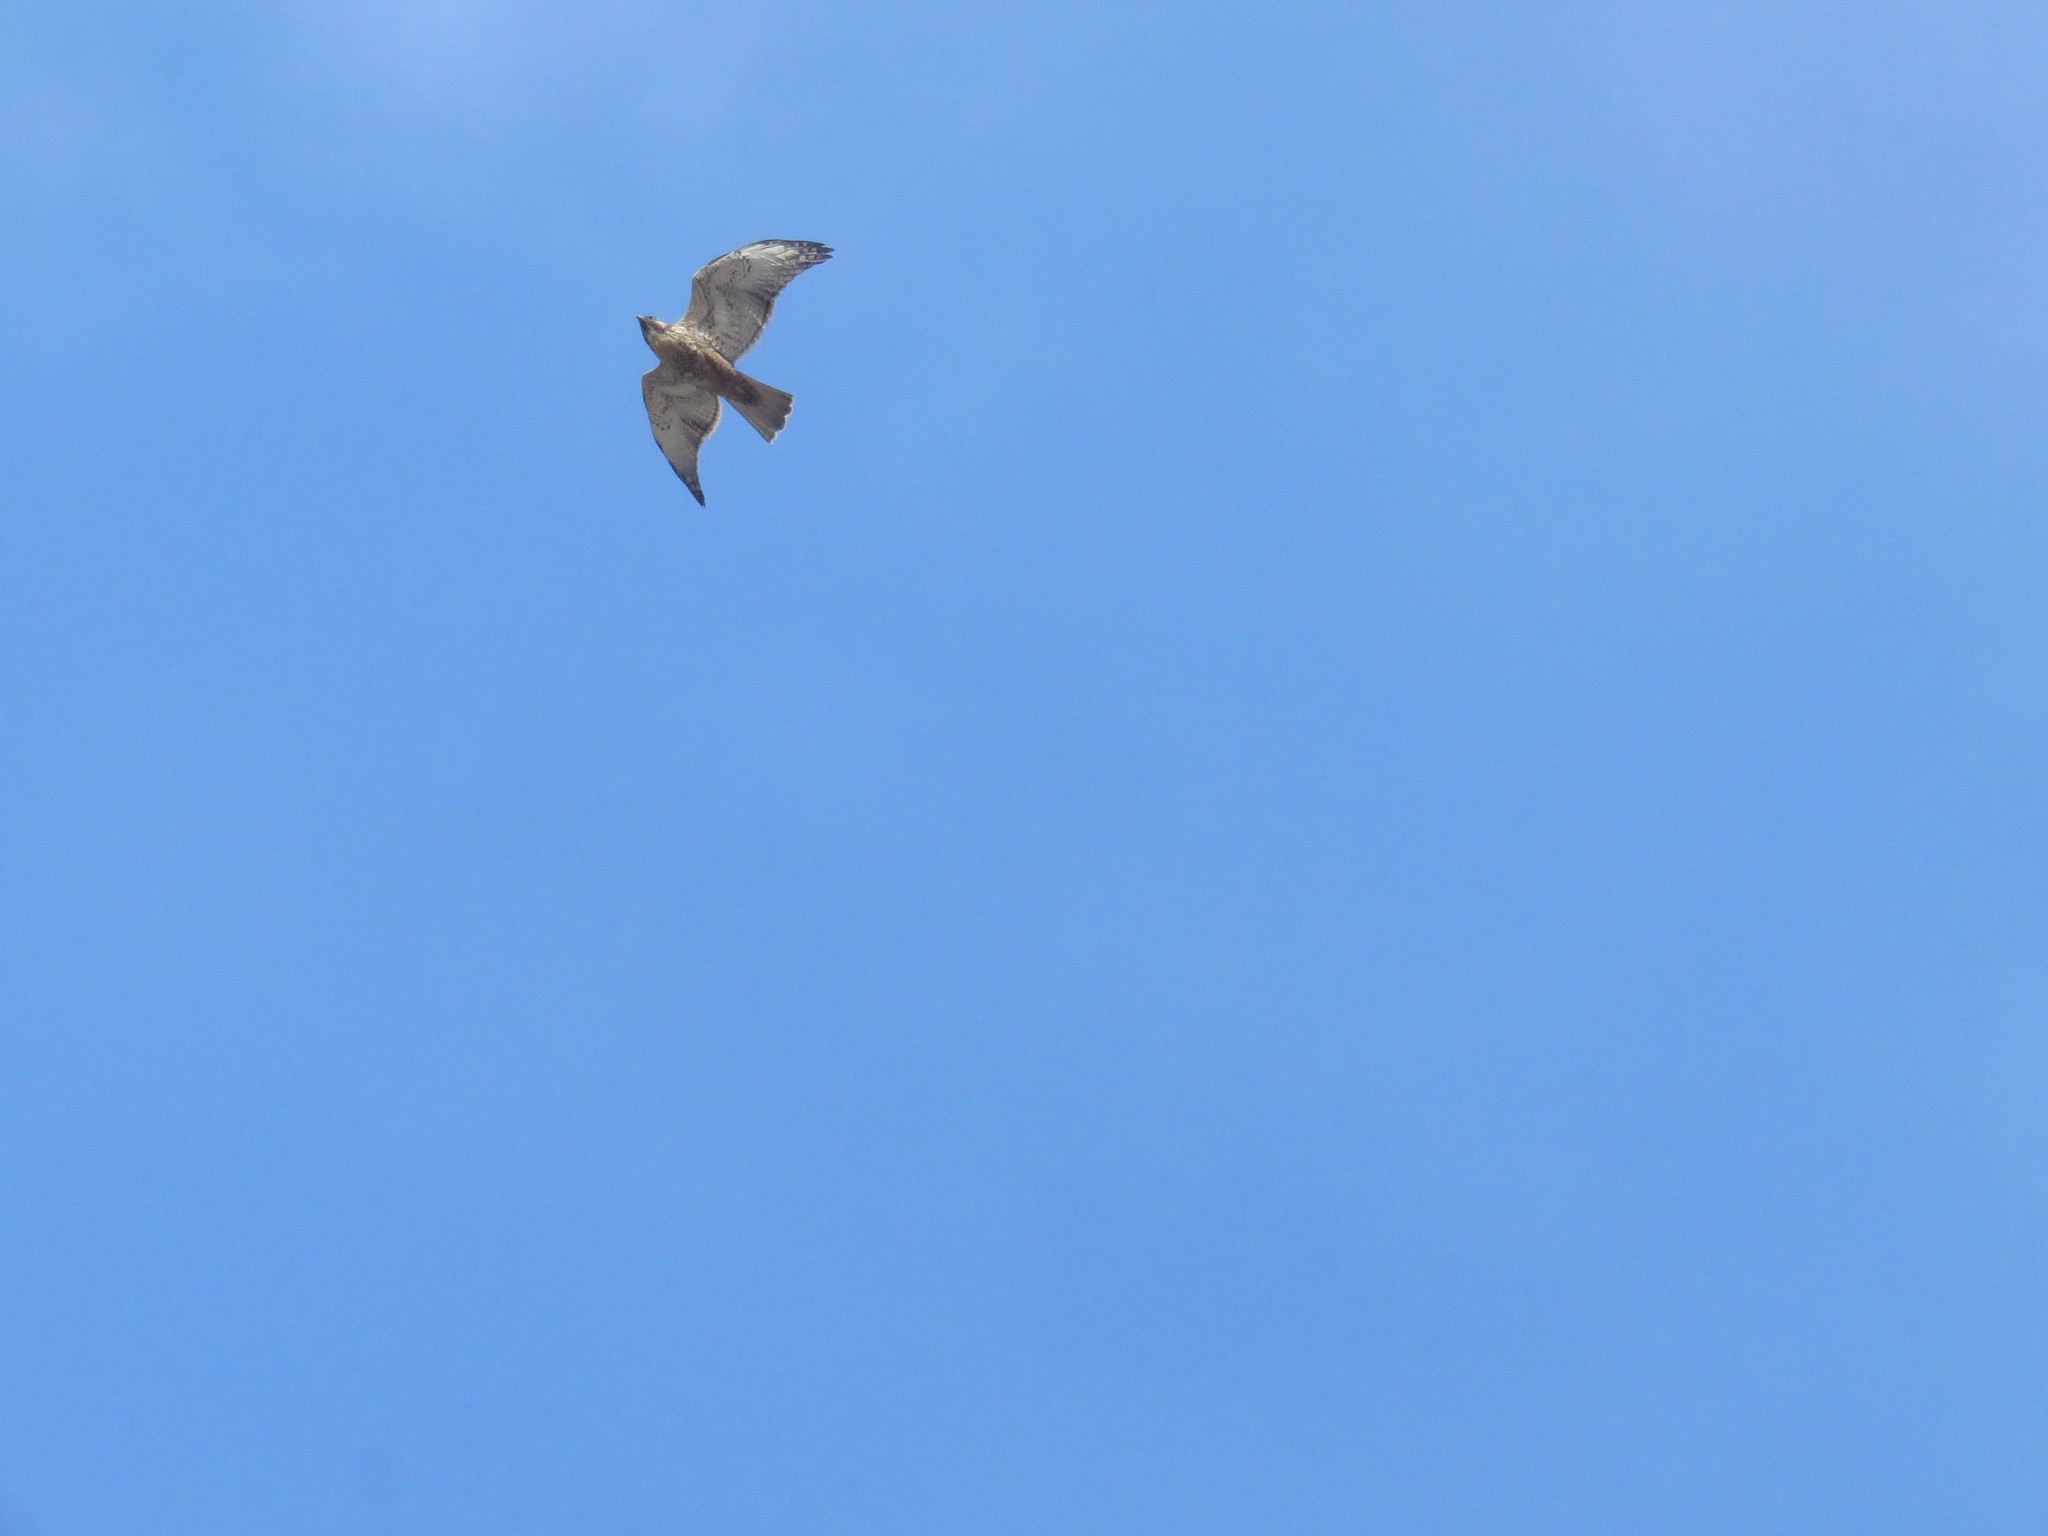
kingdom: Animalia
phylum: Chordata
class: Aves
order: Accipitriformes
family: Accipitridae
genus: Buteo
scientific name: Buteo polyosoma
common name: Variable hawk
